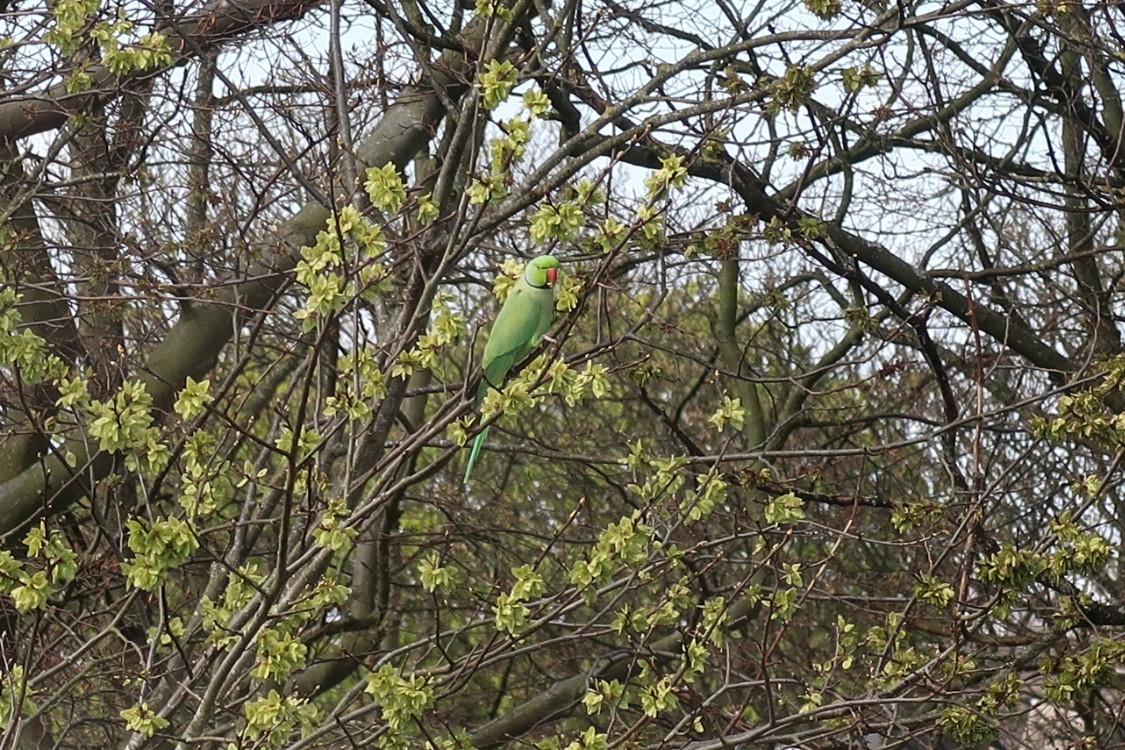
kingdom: Animalia
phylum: Chordata
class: Aves
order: Psittaciformes
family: Psittacidae
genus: Psittacula
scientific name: Psittacula krameri
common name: Rose-ringed parakeet
